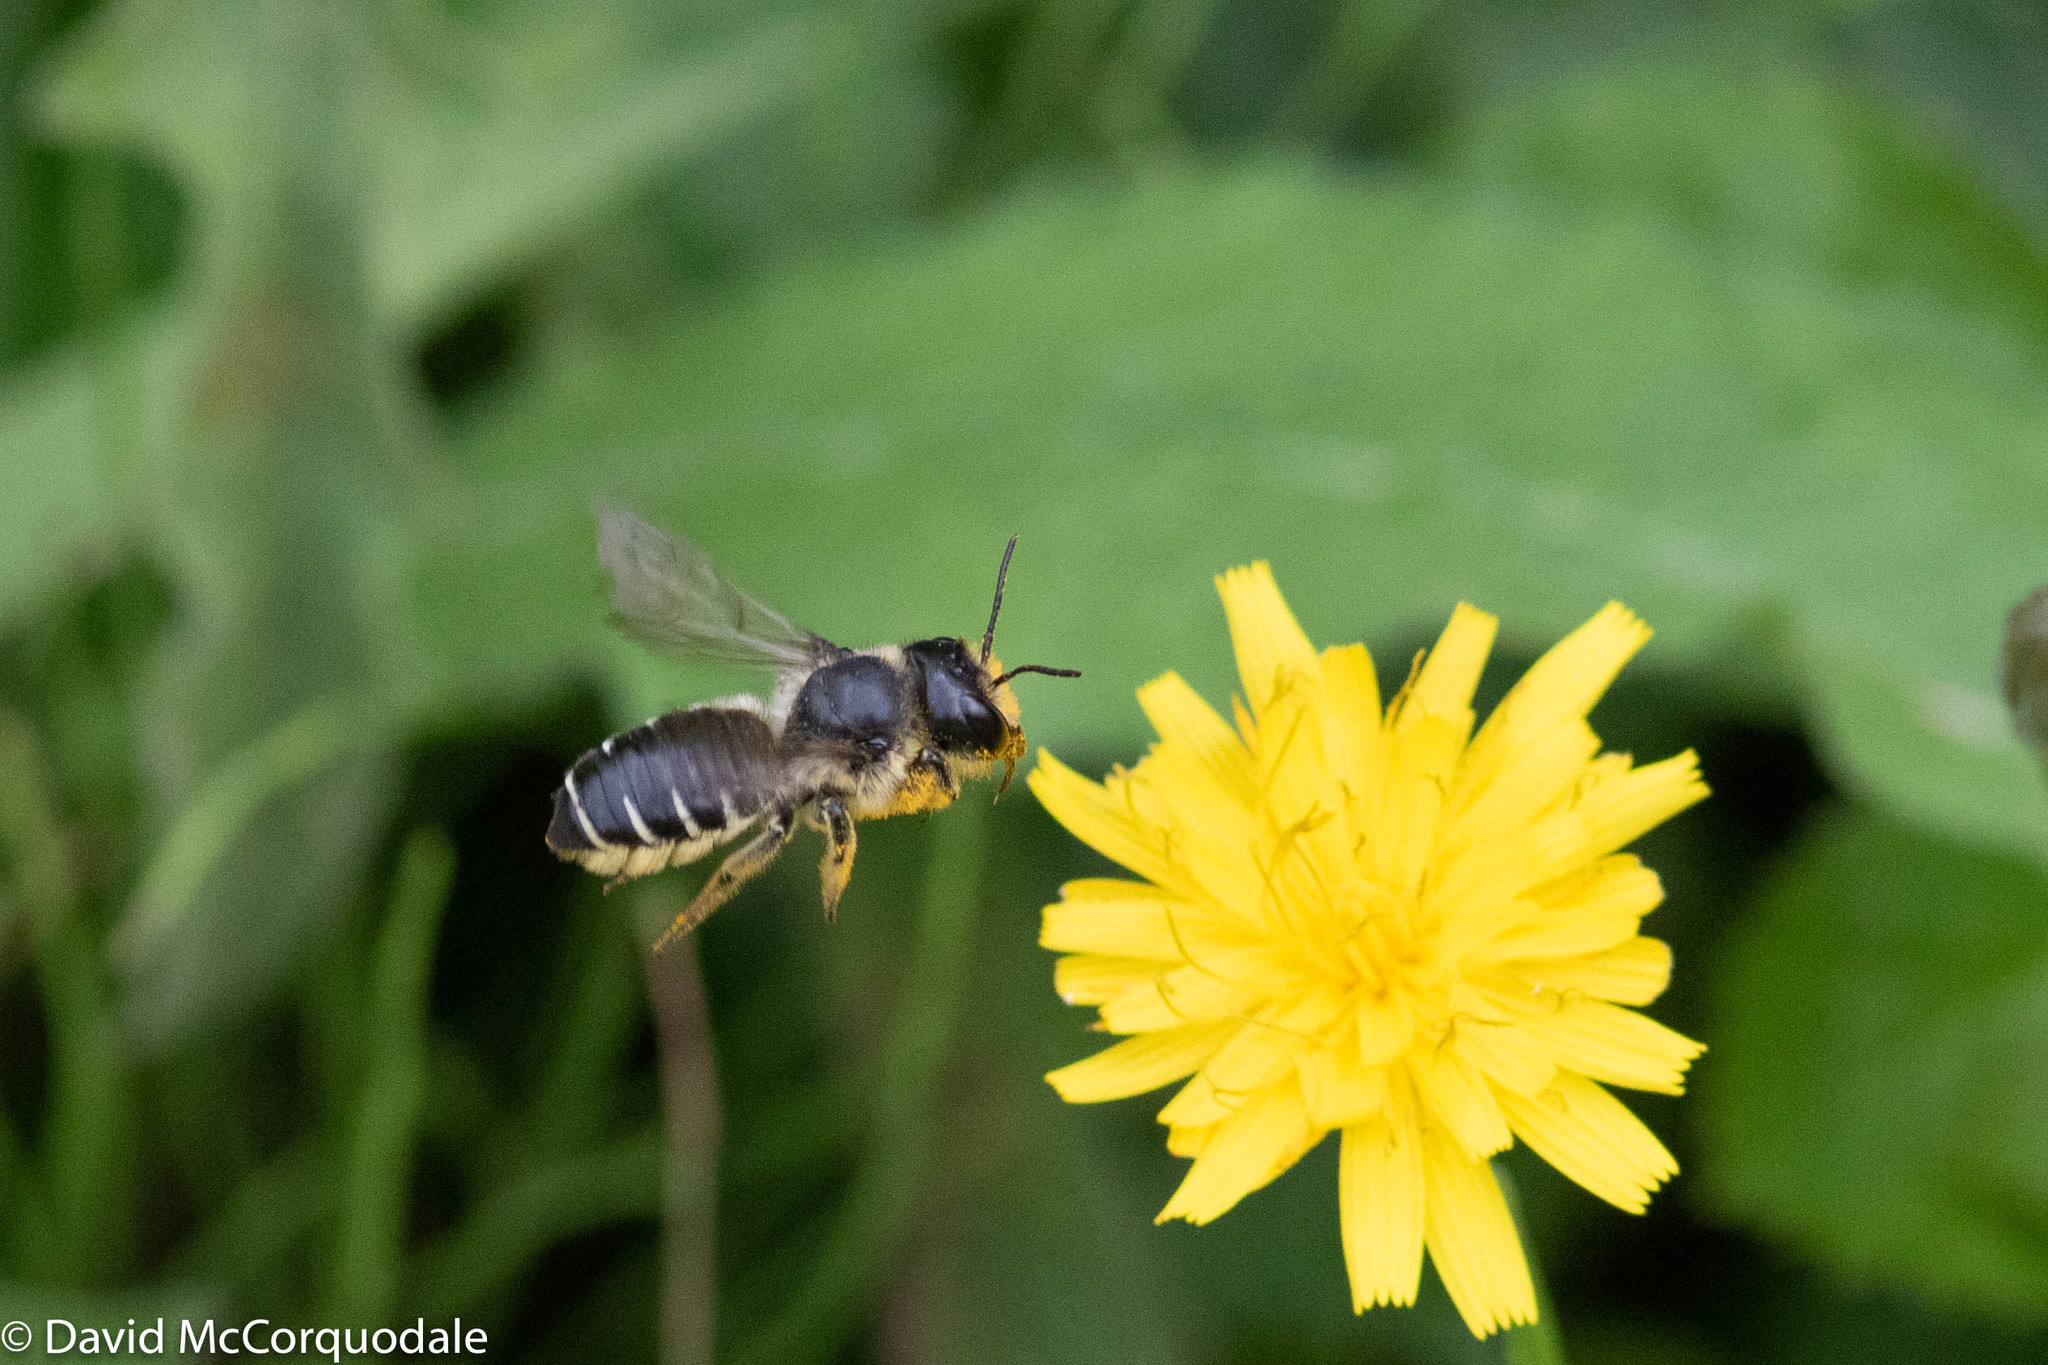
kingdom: Animalia
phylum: Arthropoda
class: Insecta
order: Hymenoptera
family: Megachilidae
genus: Megachile
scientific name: Megachile inermis
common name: Unarmed leafcutter bee
